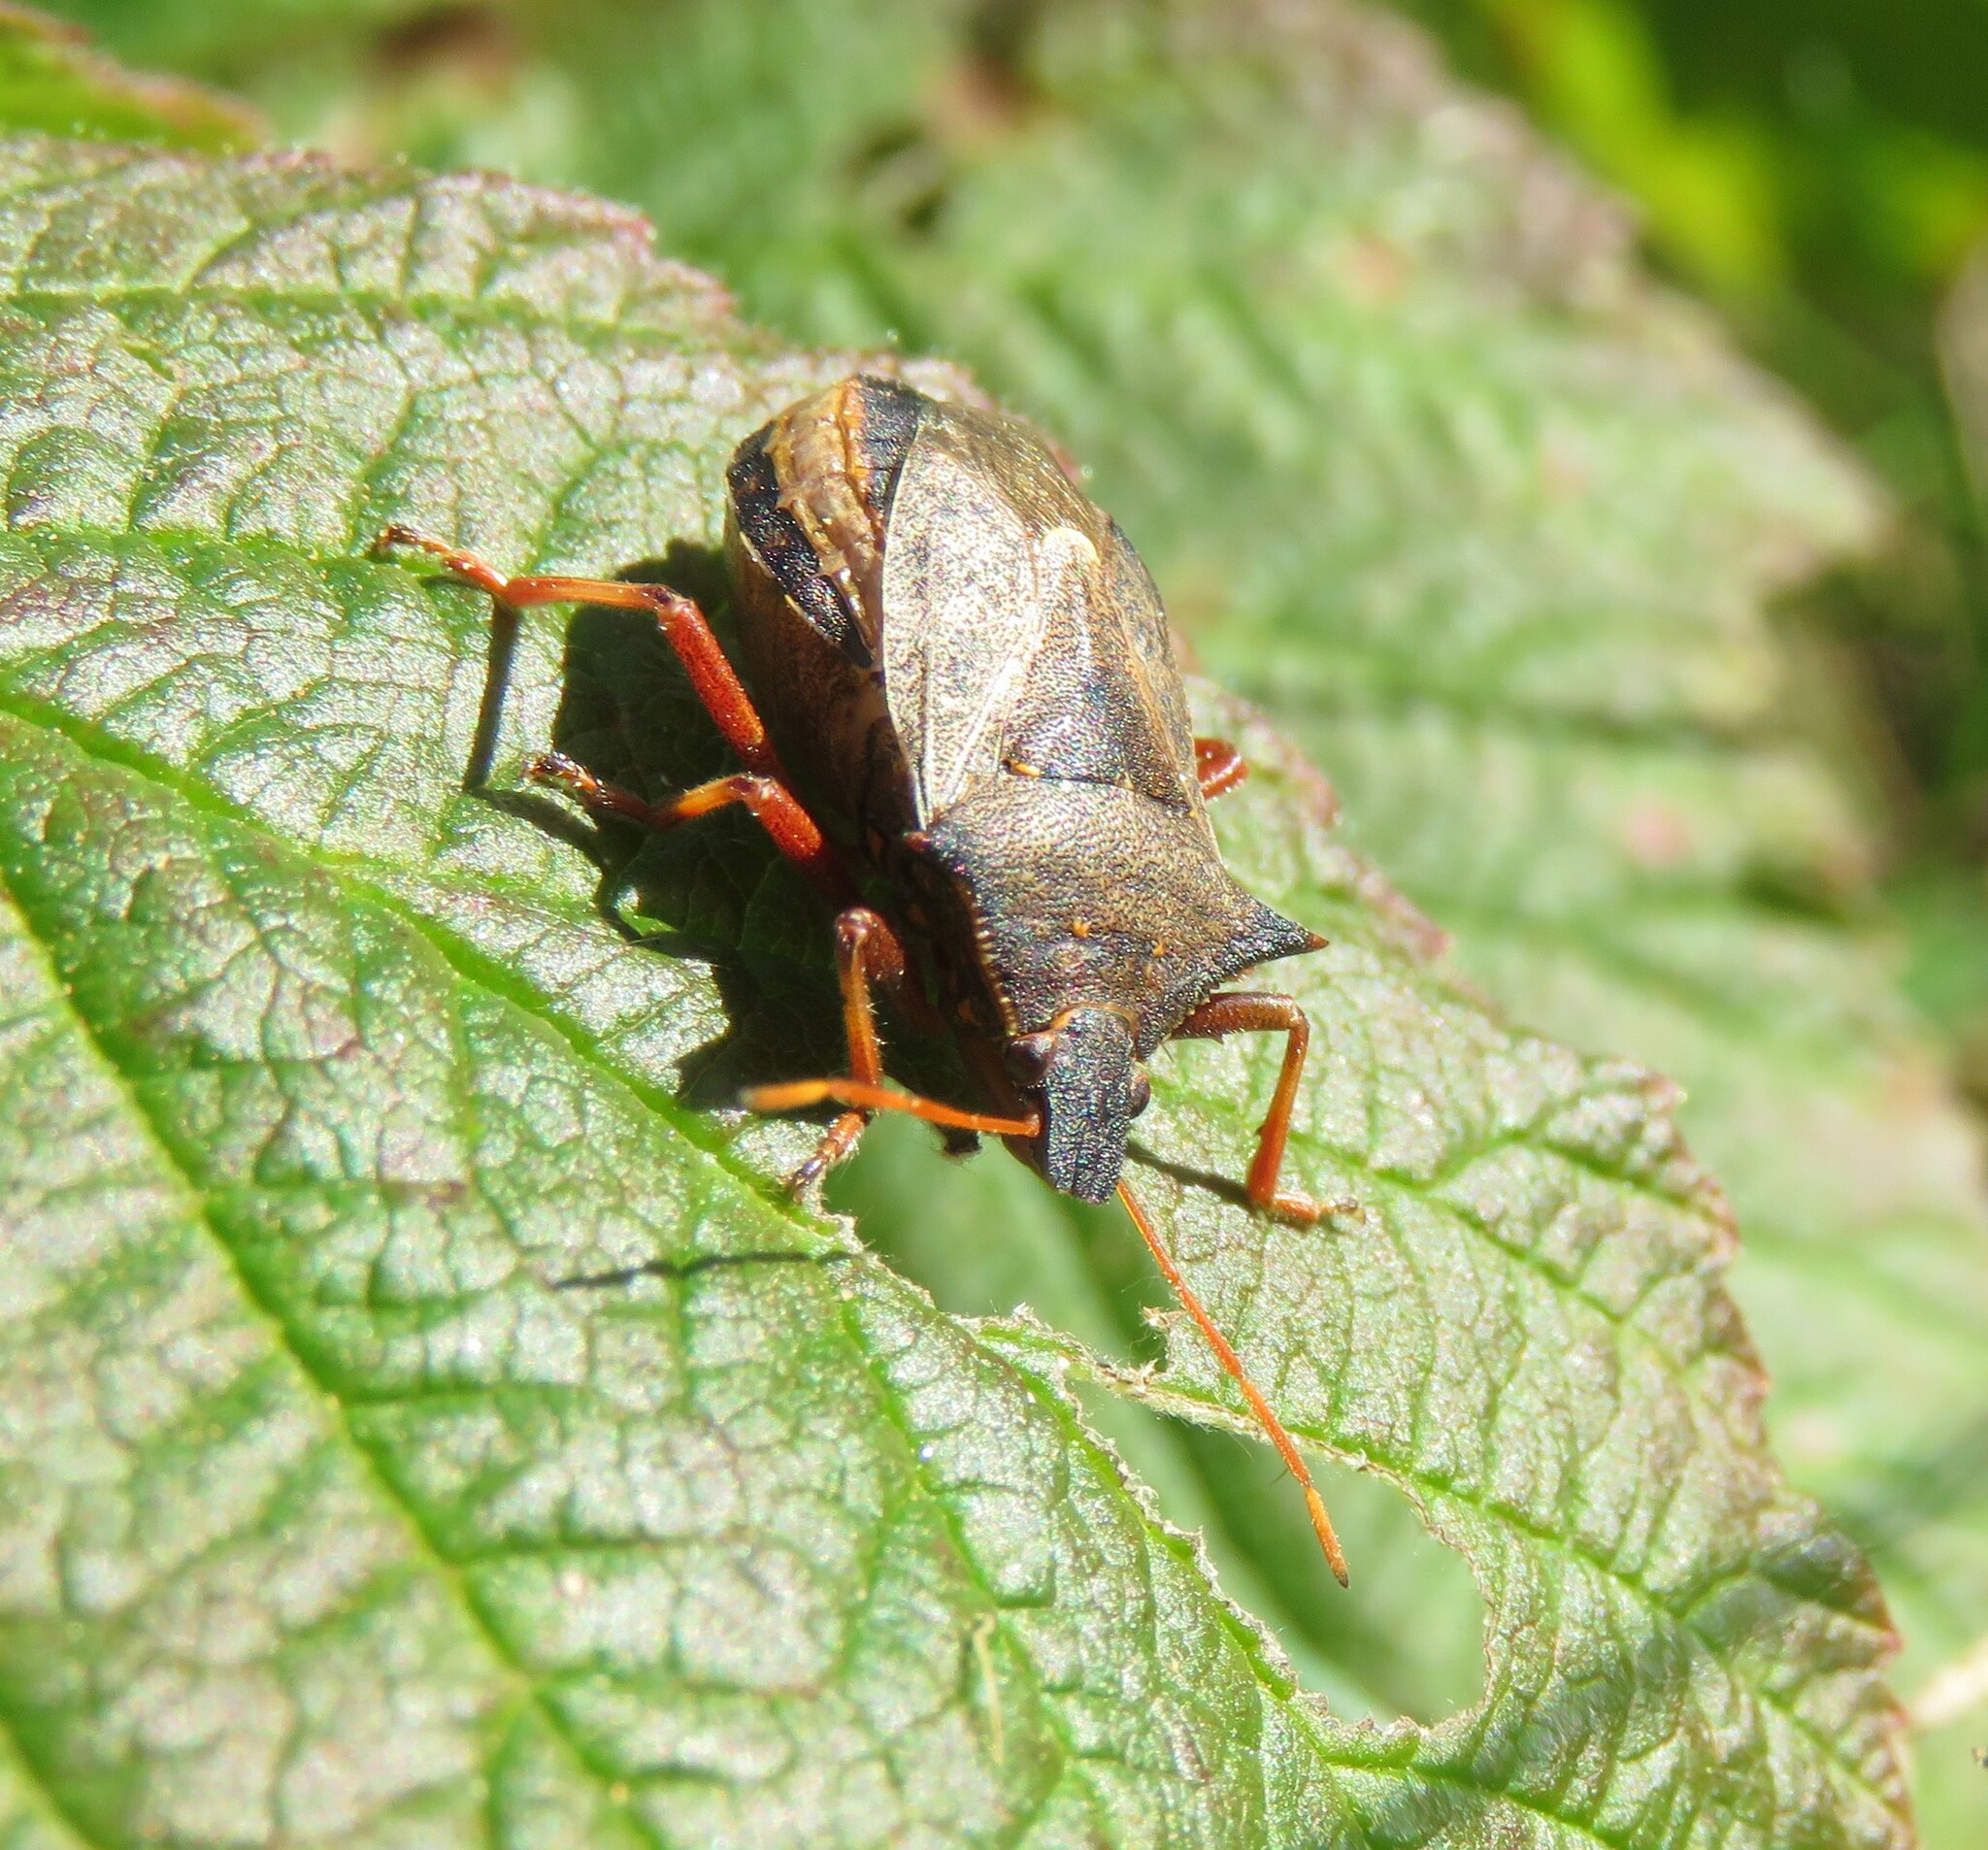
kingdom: Animalia
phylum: Arthropoda
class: Insecta
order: Hemiptera
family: Pentatomidae
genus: Picromerus
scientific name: Picromerus bidens
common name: Spiked shieldbug
